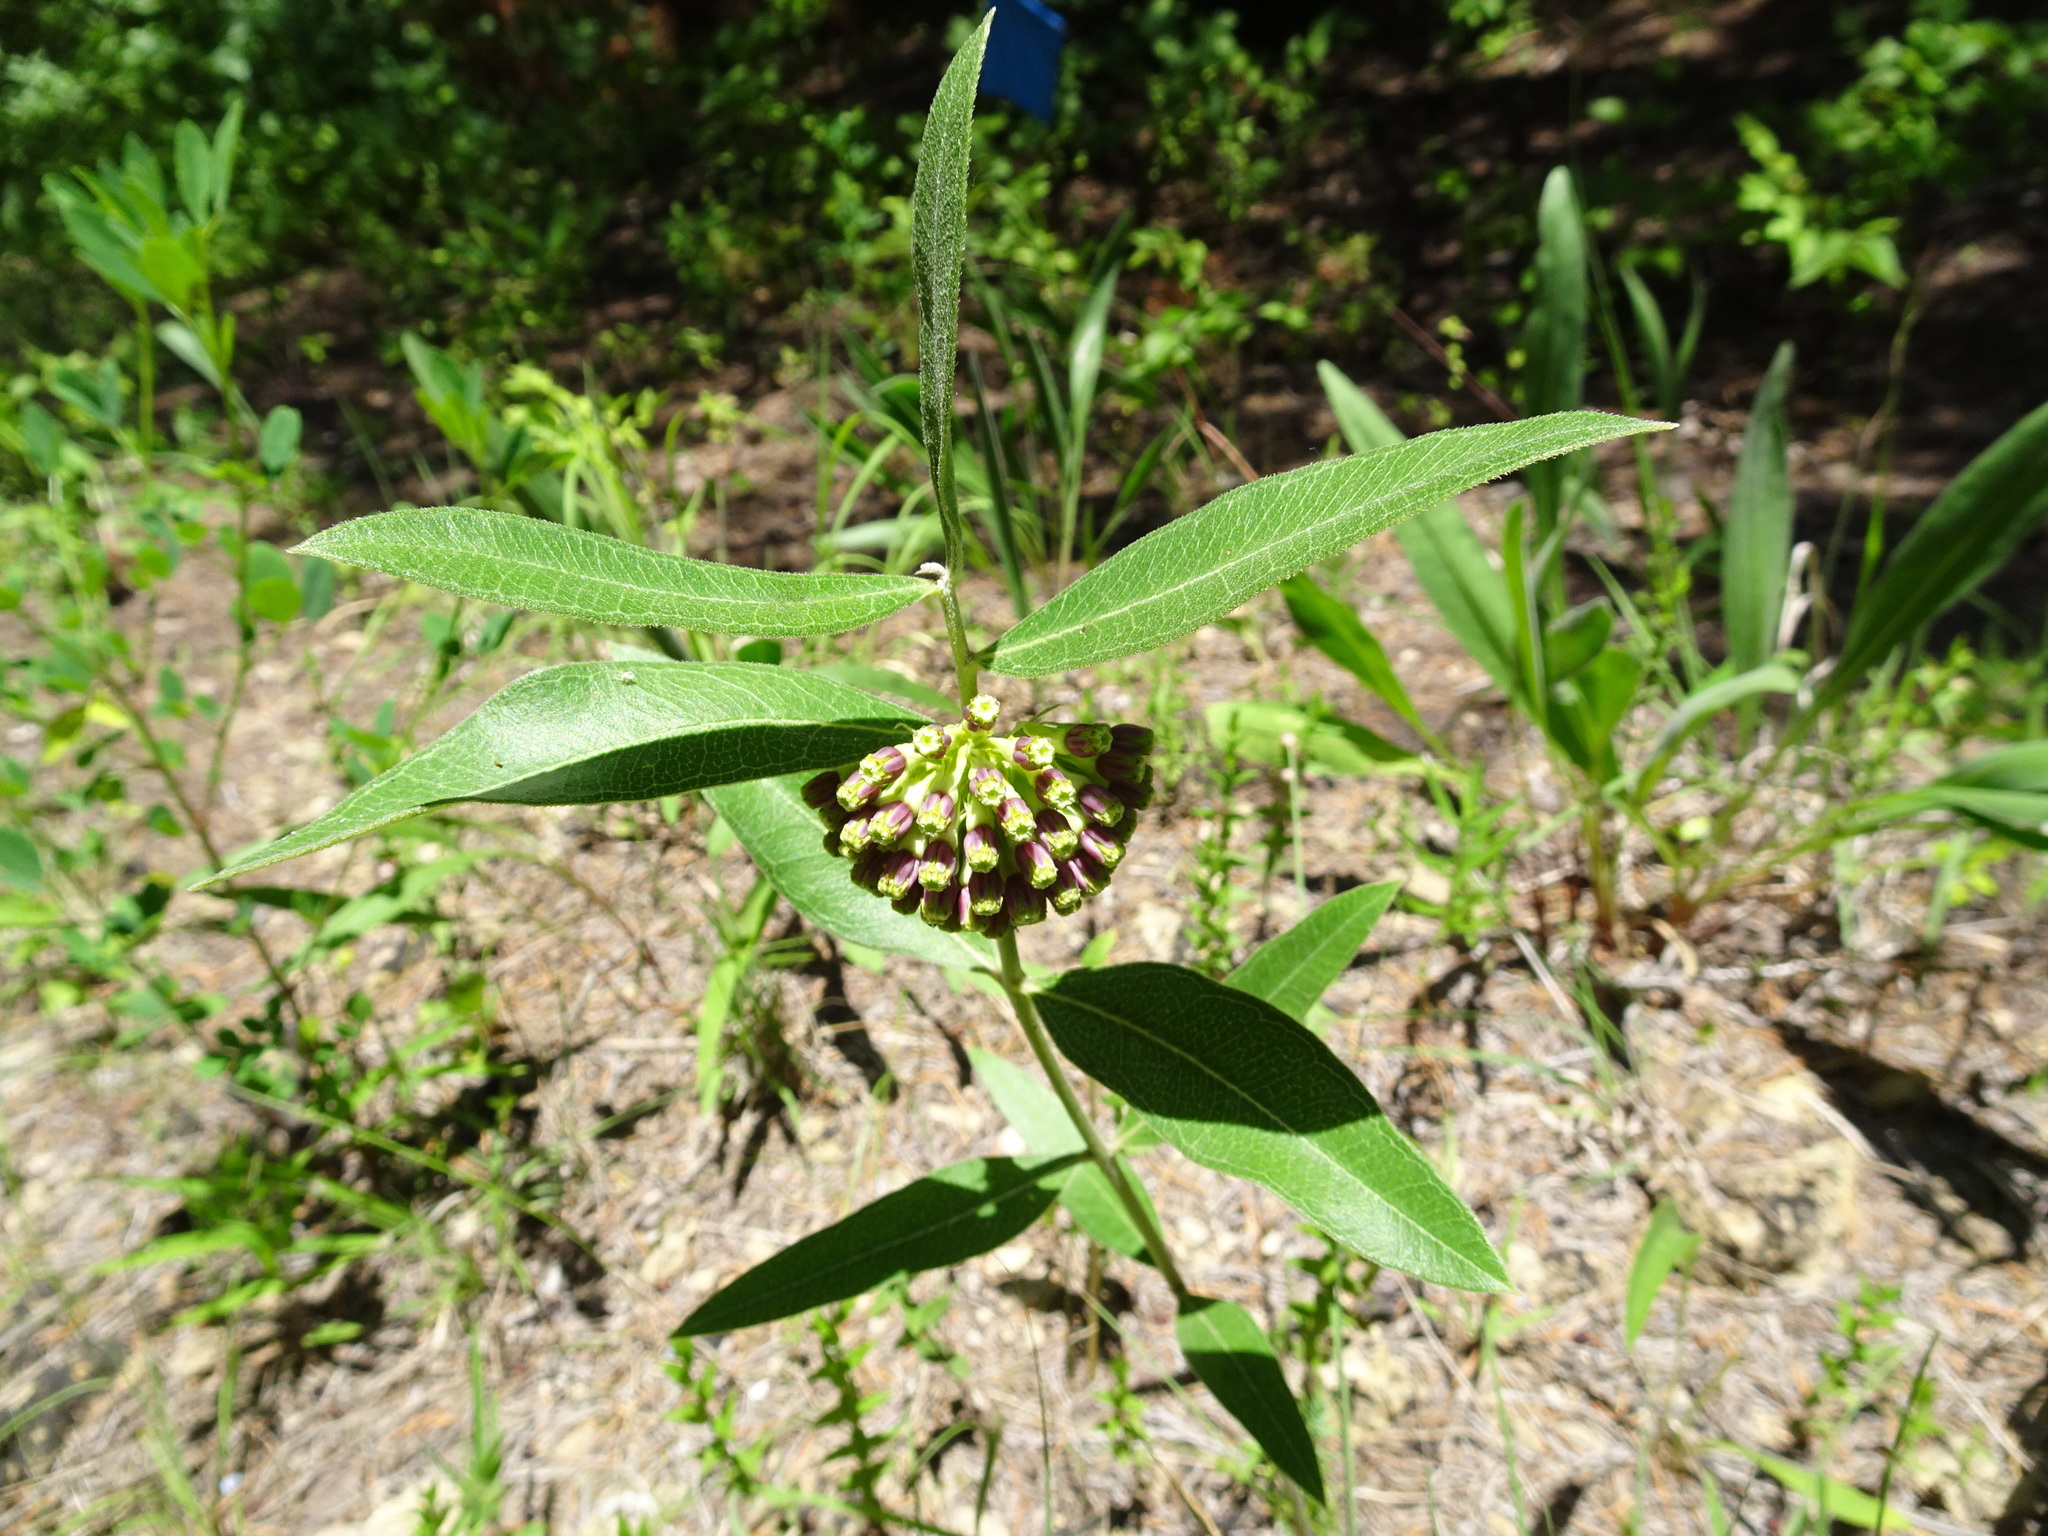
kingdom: Plantae
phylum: Tracheophyta
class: Magnoliopsida
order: Gentianales
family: Apocynaceae
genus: Asclepias
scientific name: Asclepias viridiflora
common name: Green comet milkweed
